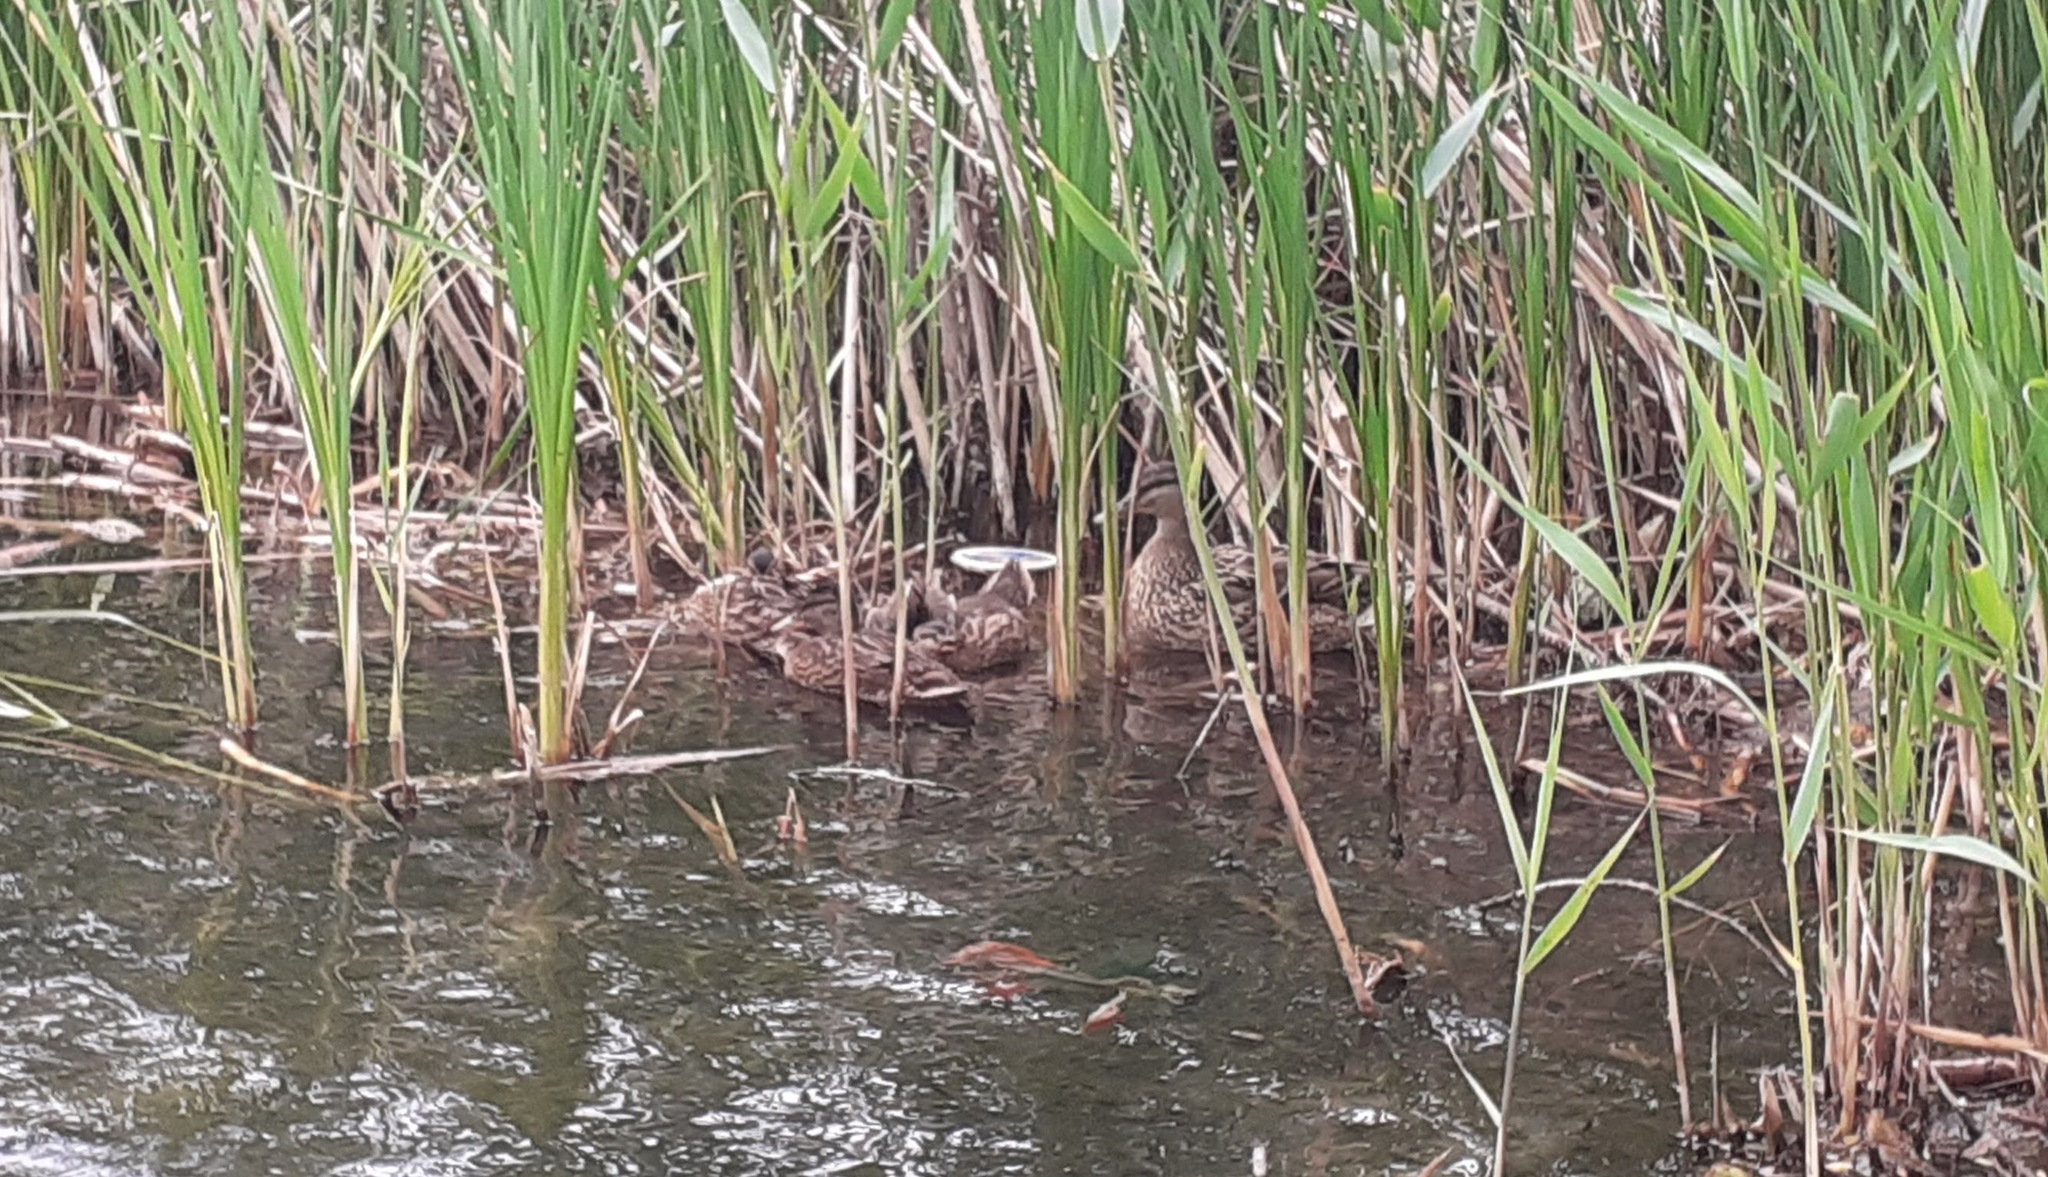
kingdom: Animalia
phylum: Chordata
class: Aves
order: Anseriformes
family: Anatidae
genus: Anas
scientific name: Anas platyrhynchos
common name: Mallard
